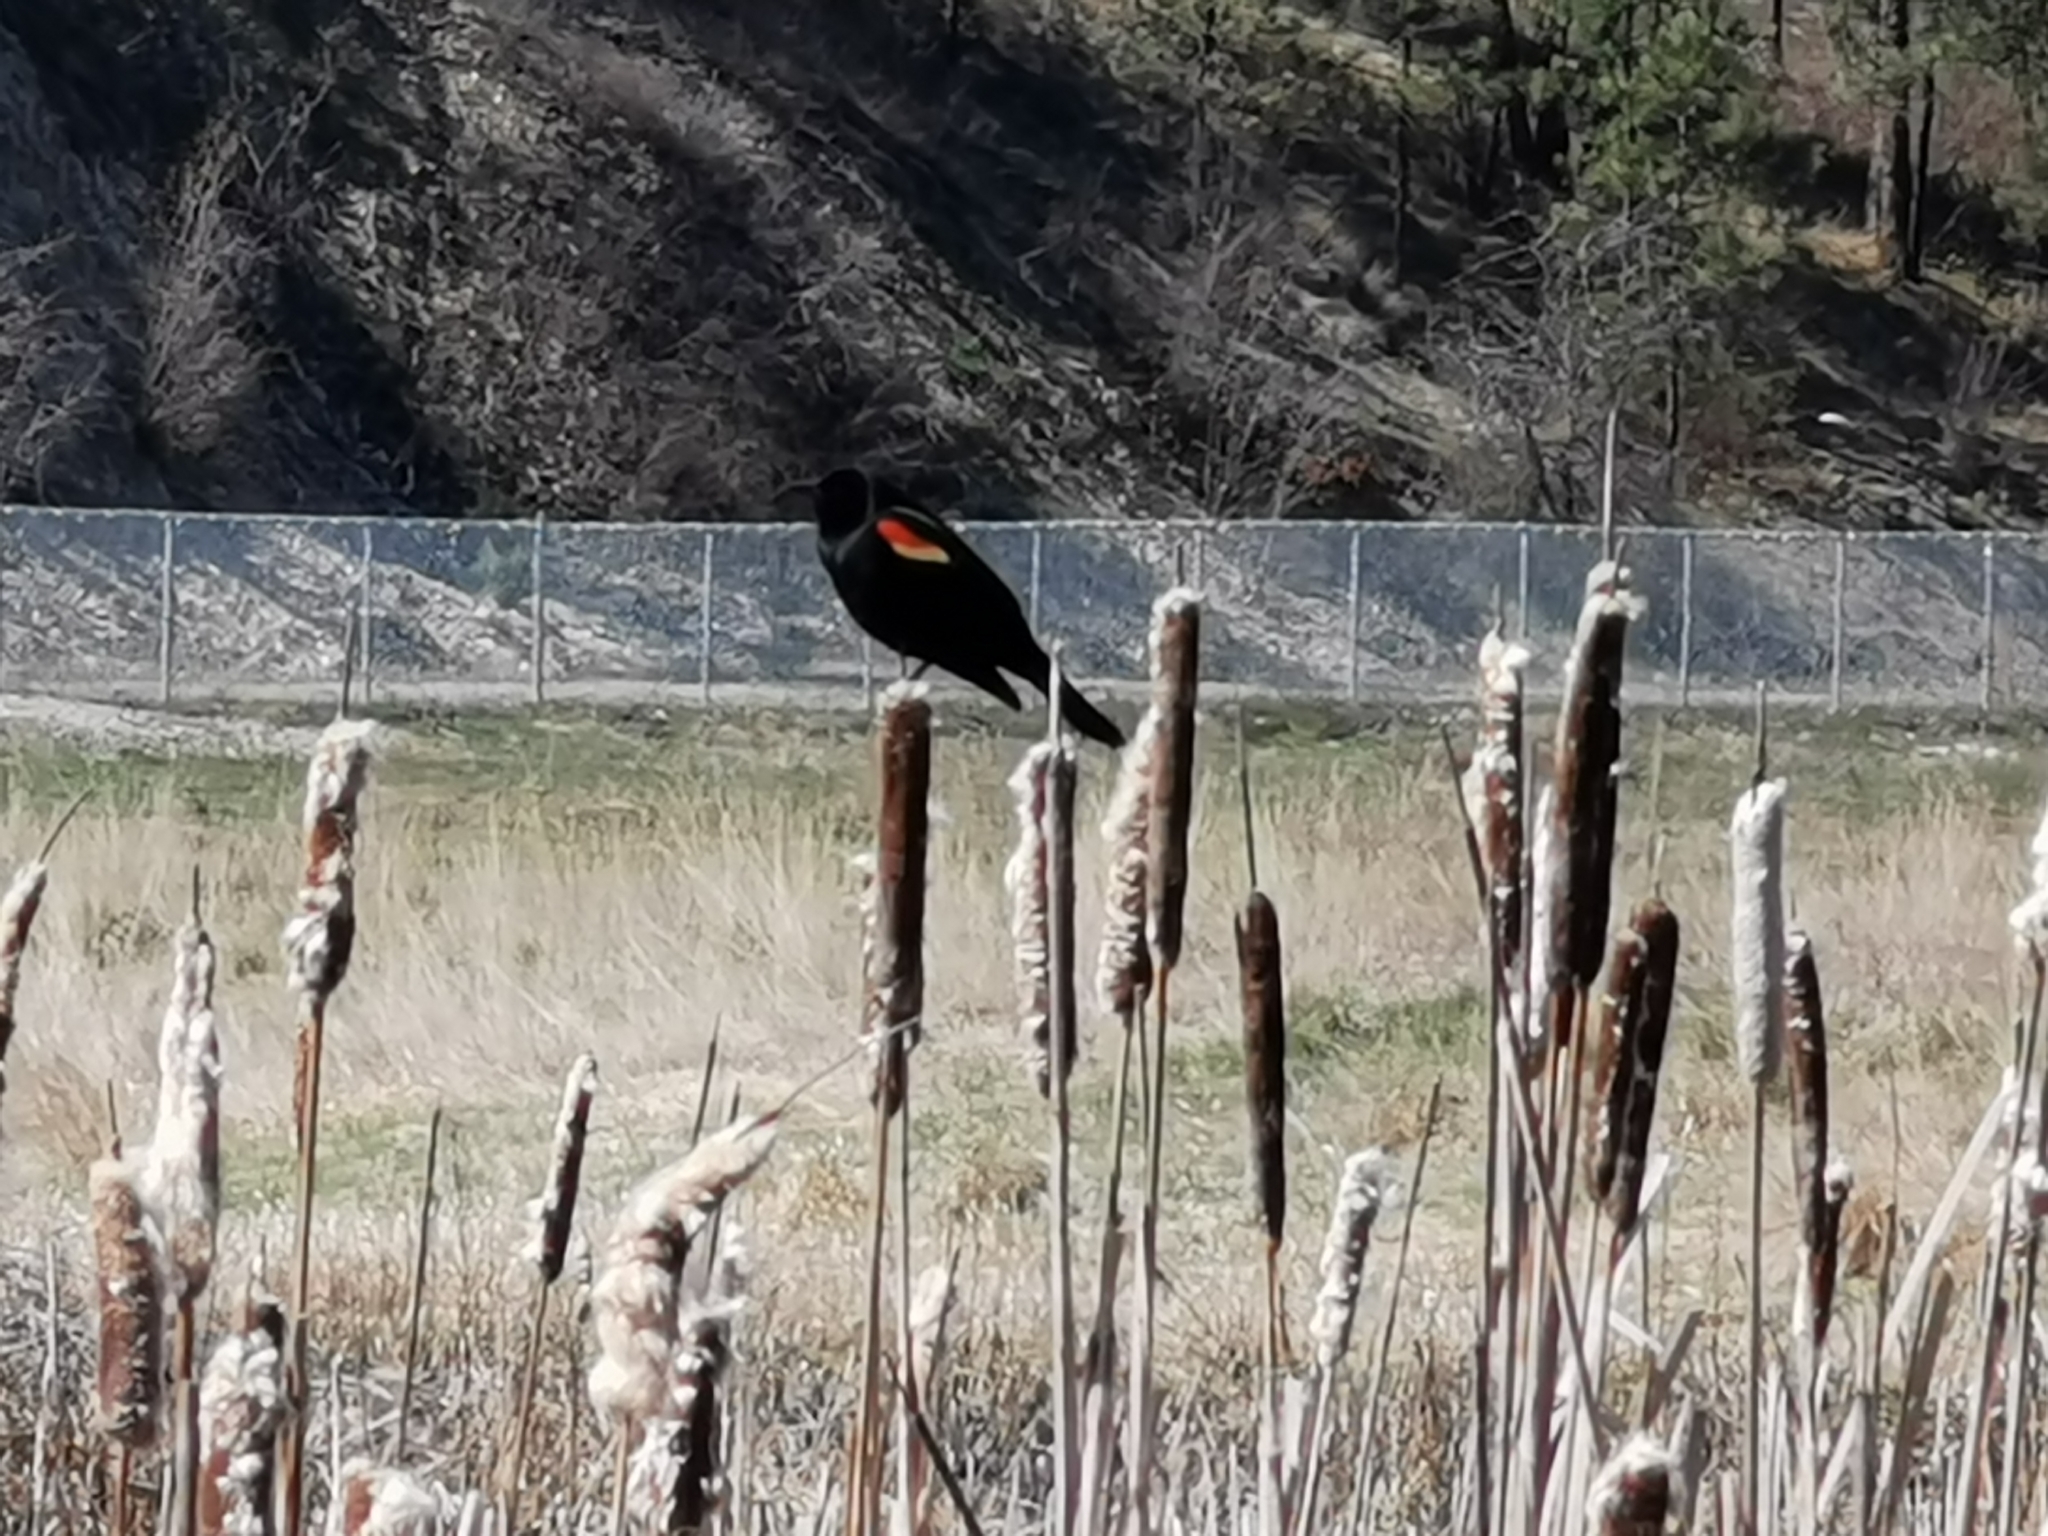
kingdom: Animalia
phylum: Chordata
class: Aves
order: Passeriformes
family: Icteridae
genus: Agelaius
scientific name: Agelaius phoeniceus
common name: Red-winged blackbird
